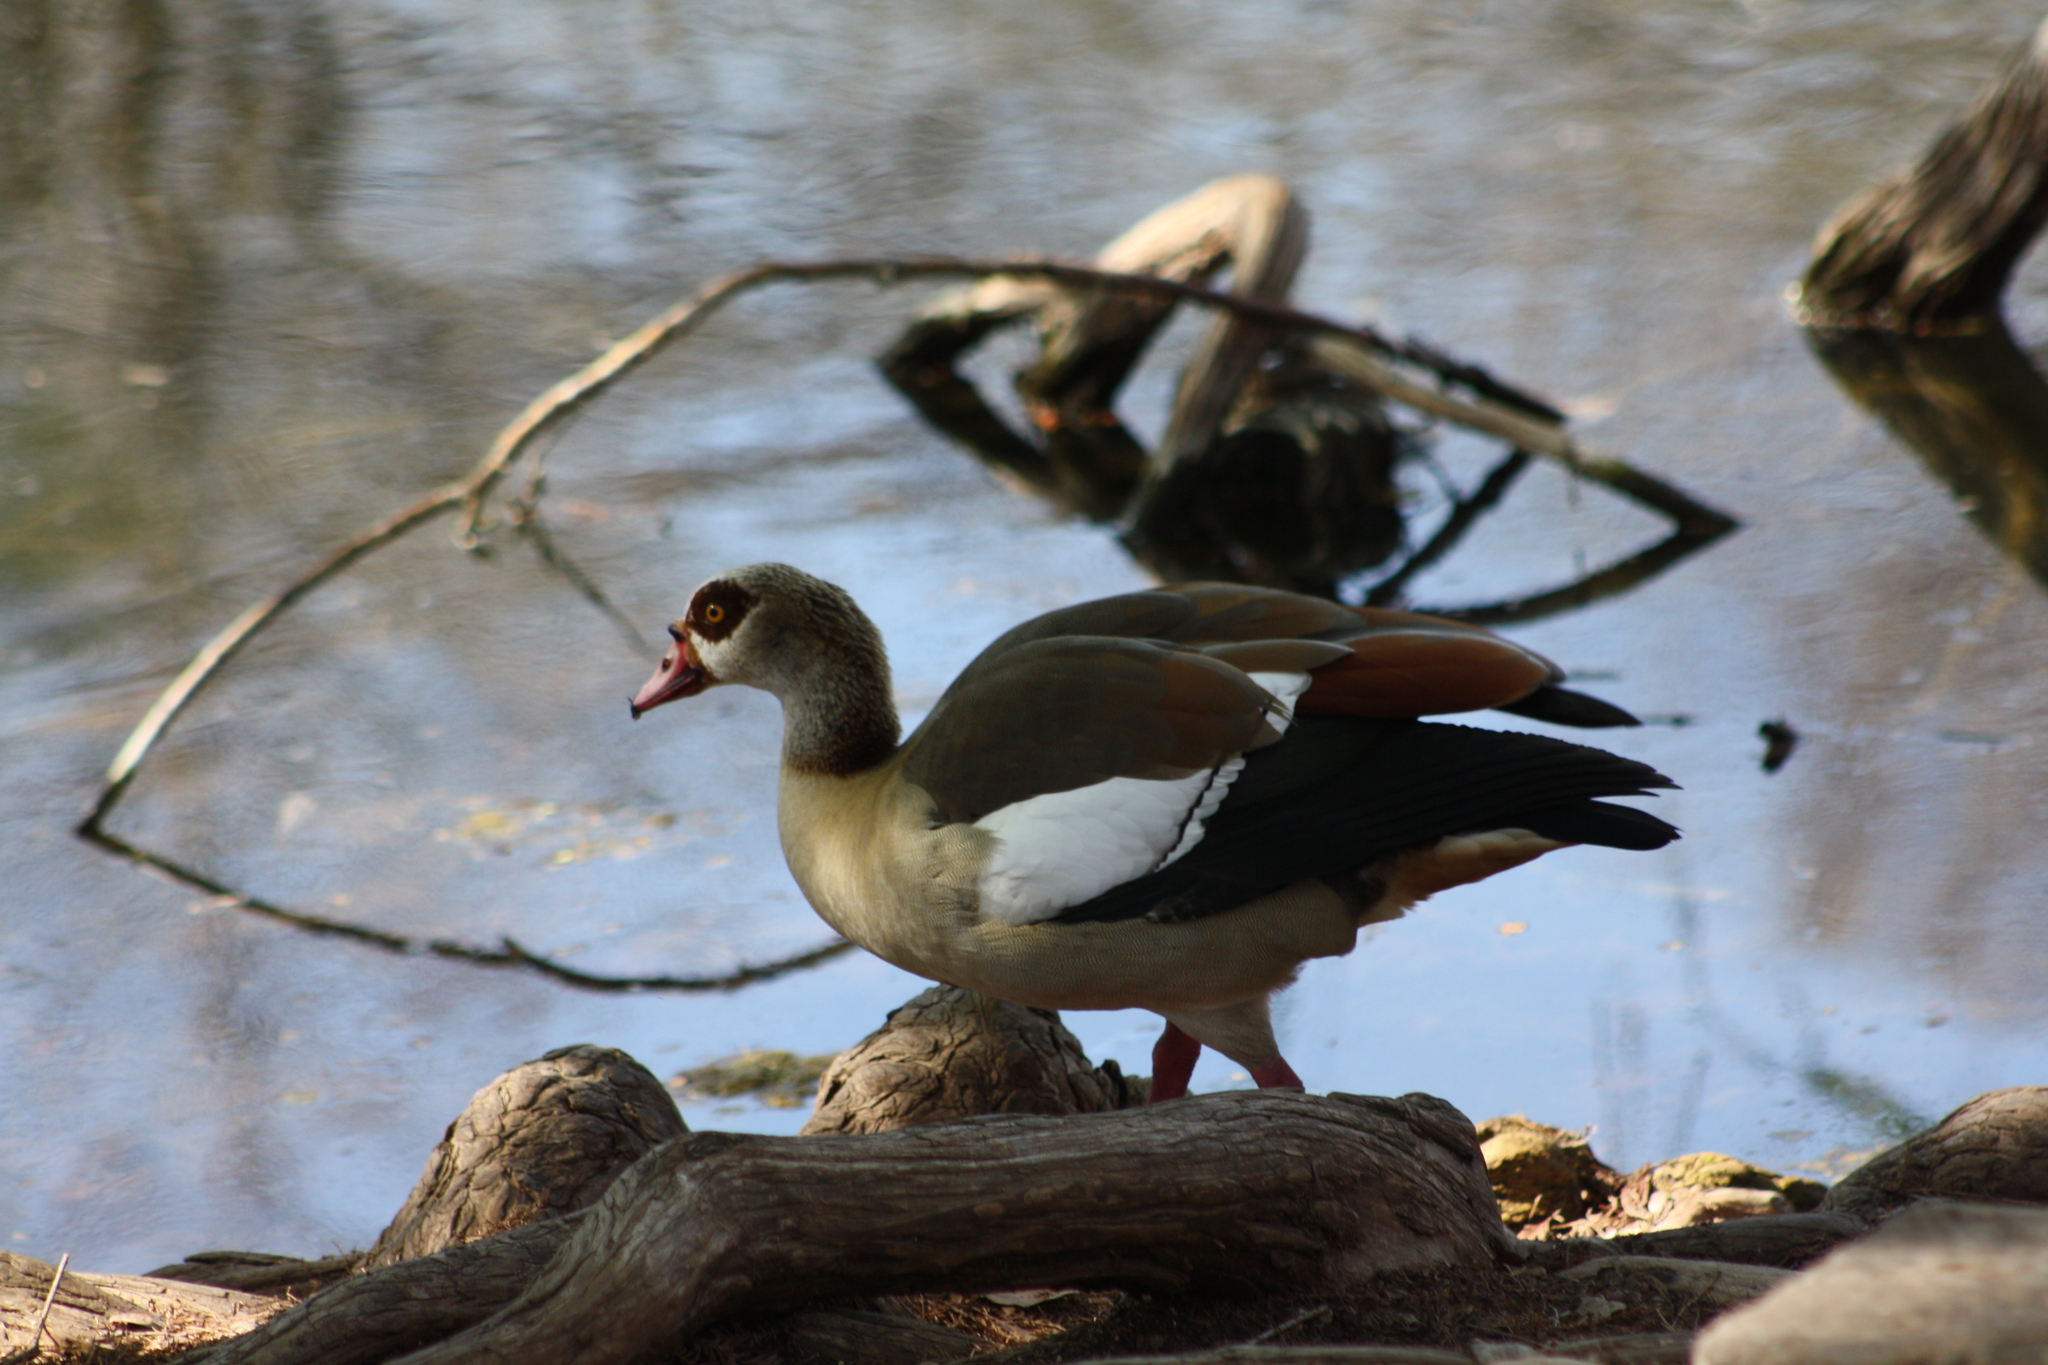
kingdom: Animalia
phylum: Chordata
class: Aves
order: Anseriformes
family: Anatidae
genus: Alopochen
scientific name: Alopochen aegyptiaca
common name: Egyptian goose
